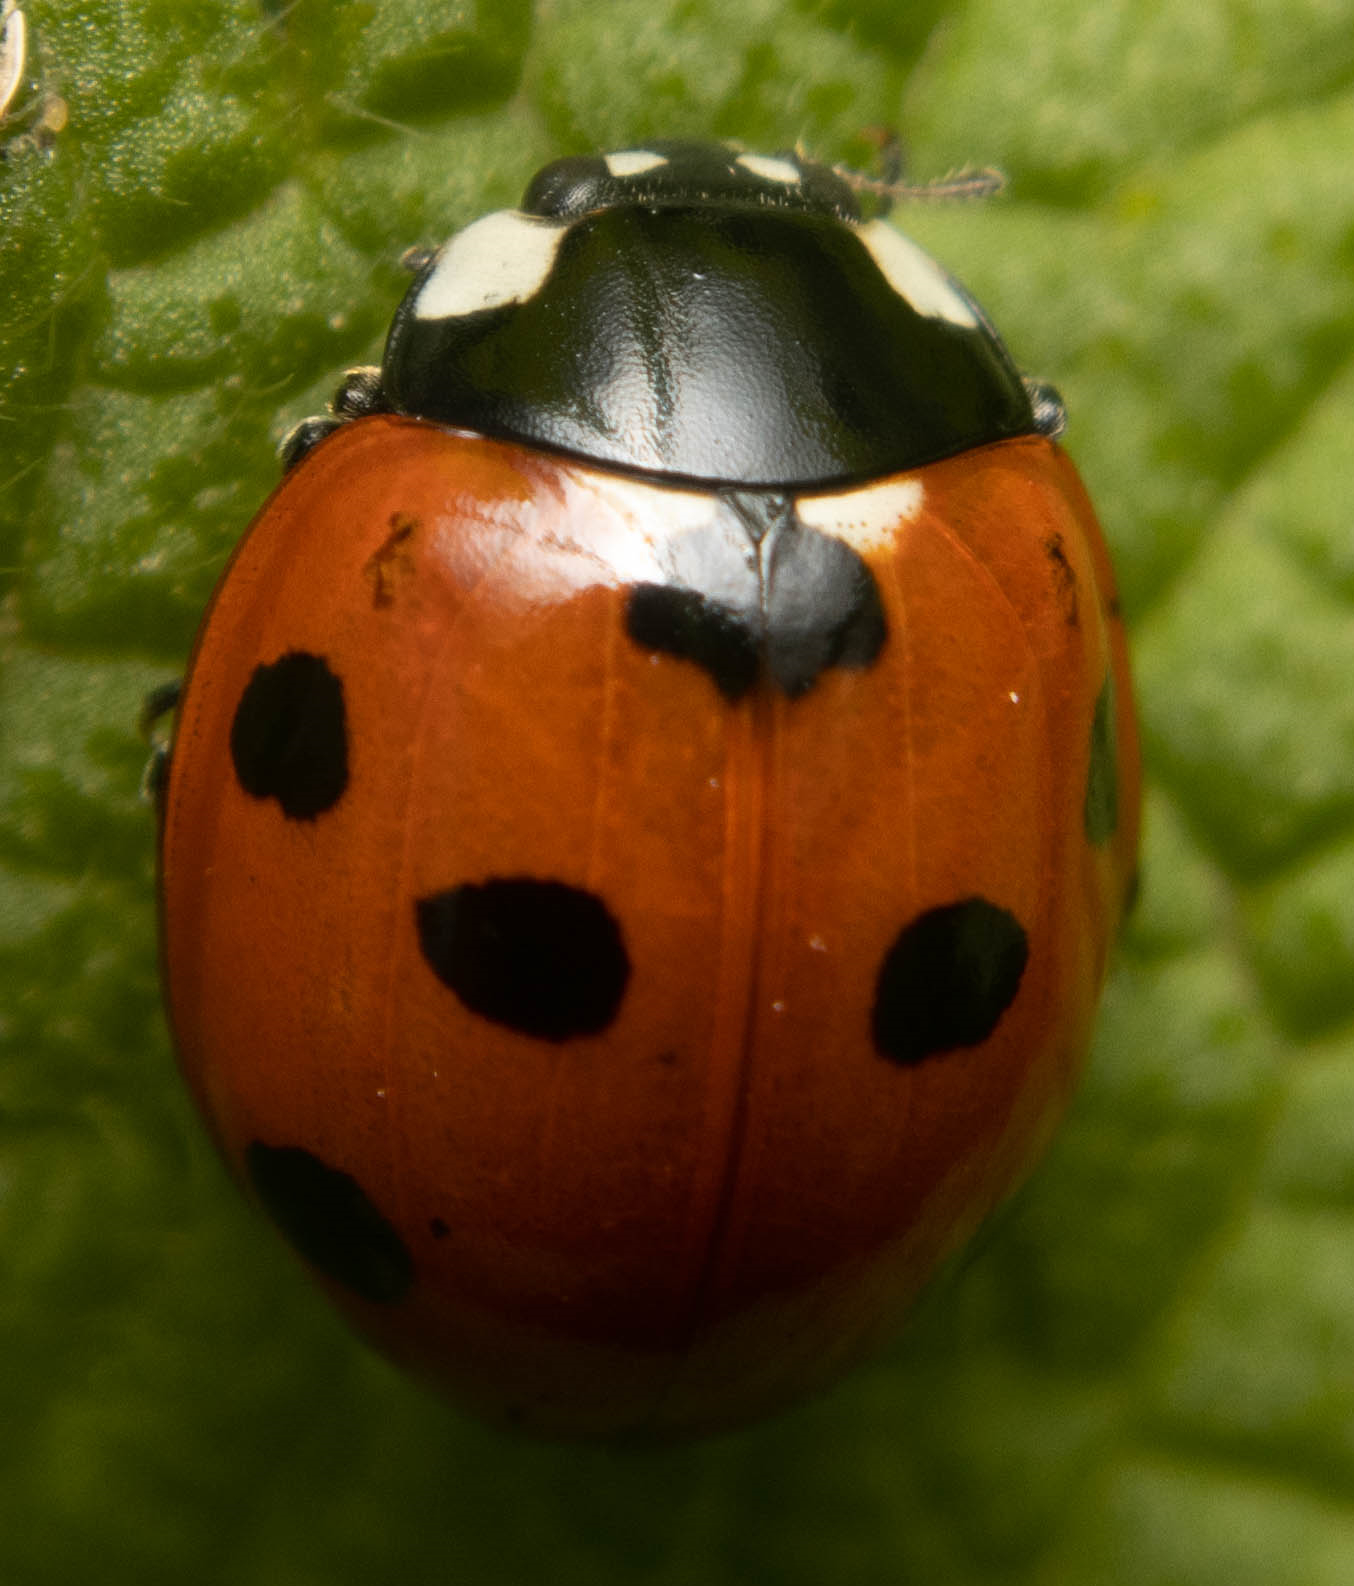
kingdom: Animalia
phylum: Arthropoda
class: Insecta
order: Coleoptera
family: Coccinellidae
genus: Coccinella
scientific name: Coccinella septempunctata
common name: Sevenspotted lady beetle
